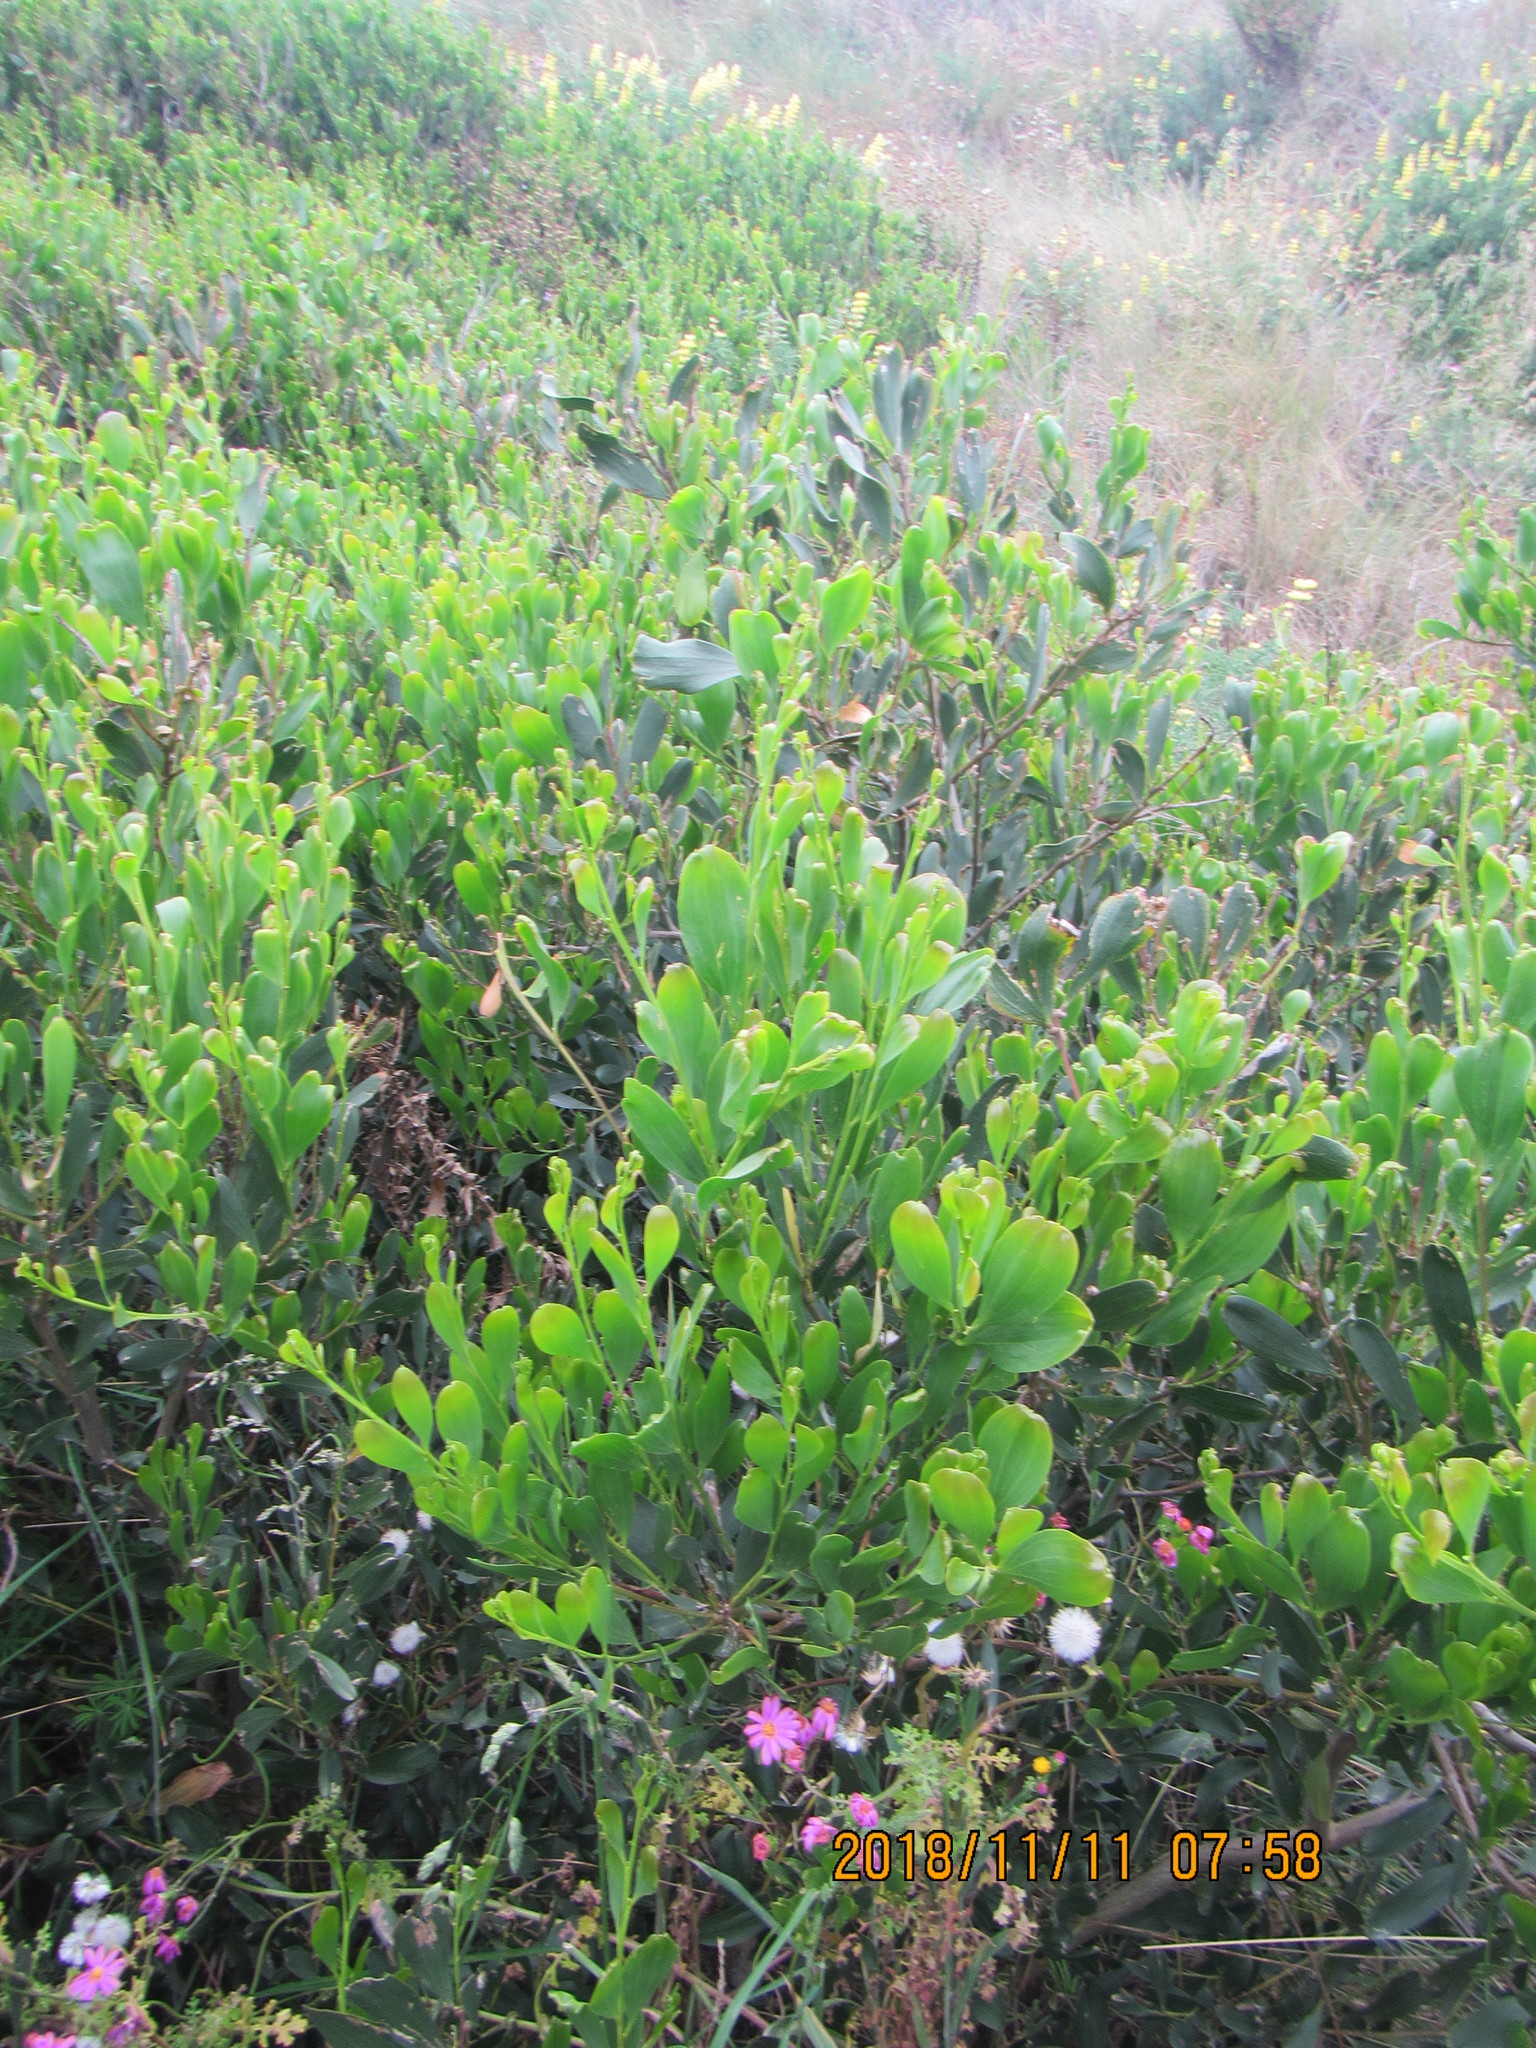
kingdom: Plantae
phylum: Tracheophyta
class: Magnoliopsida
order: Fabales
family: Fabaceae
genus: Acacia
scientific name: Acacia longifolia
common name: Sydney golden wattle
